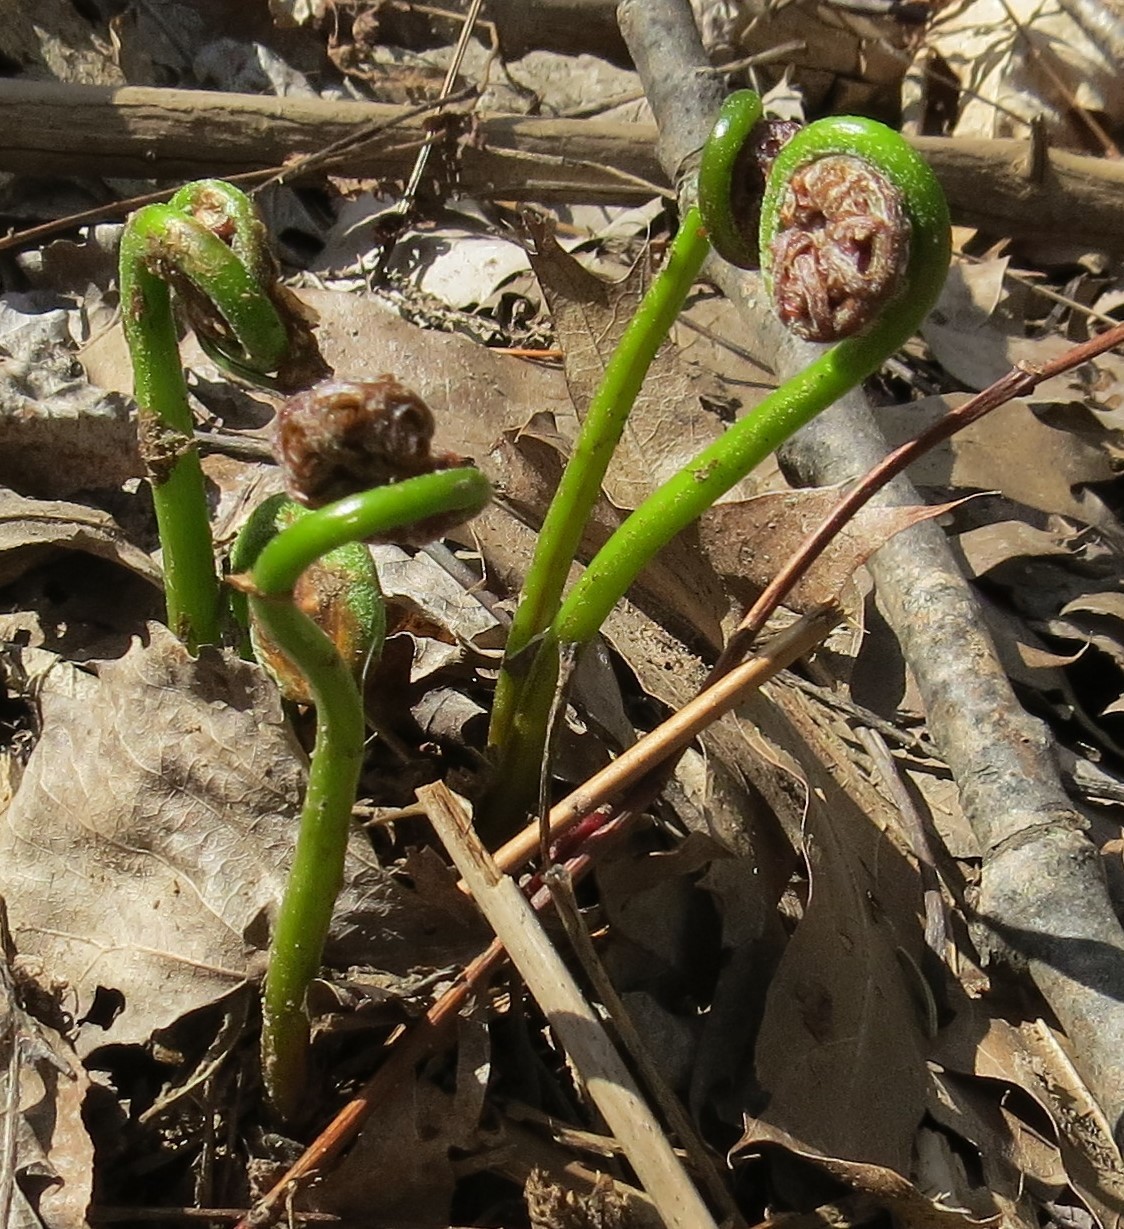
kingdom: Plantae
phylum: Tracheophyta
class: Polypodiopsida
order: Polypodiales
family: Onocleaceae
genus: Onoclea
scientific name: Onoclea sensibilis
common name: Sensitive fern
